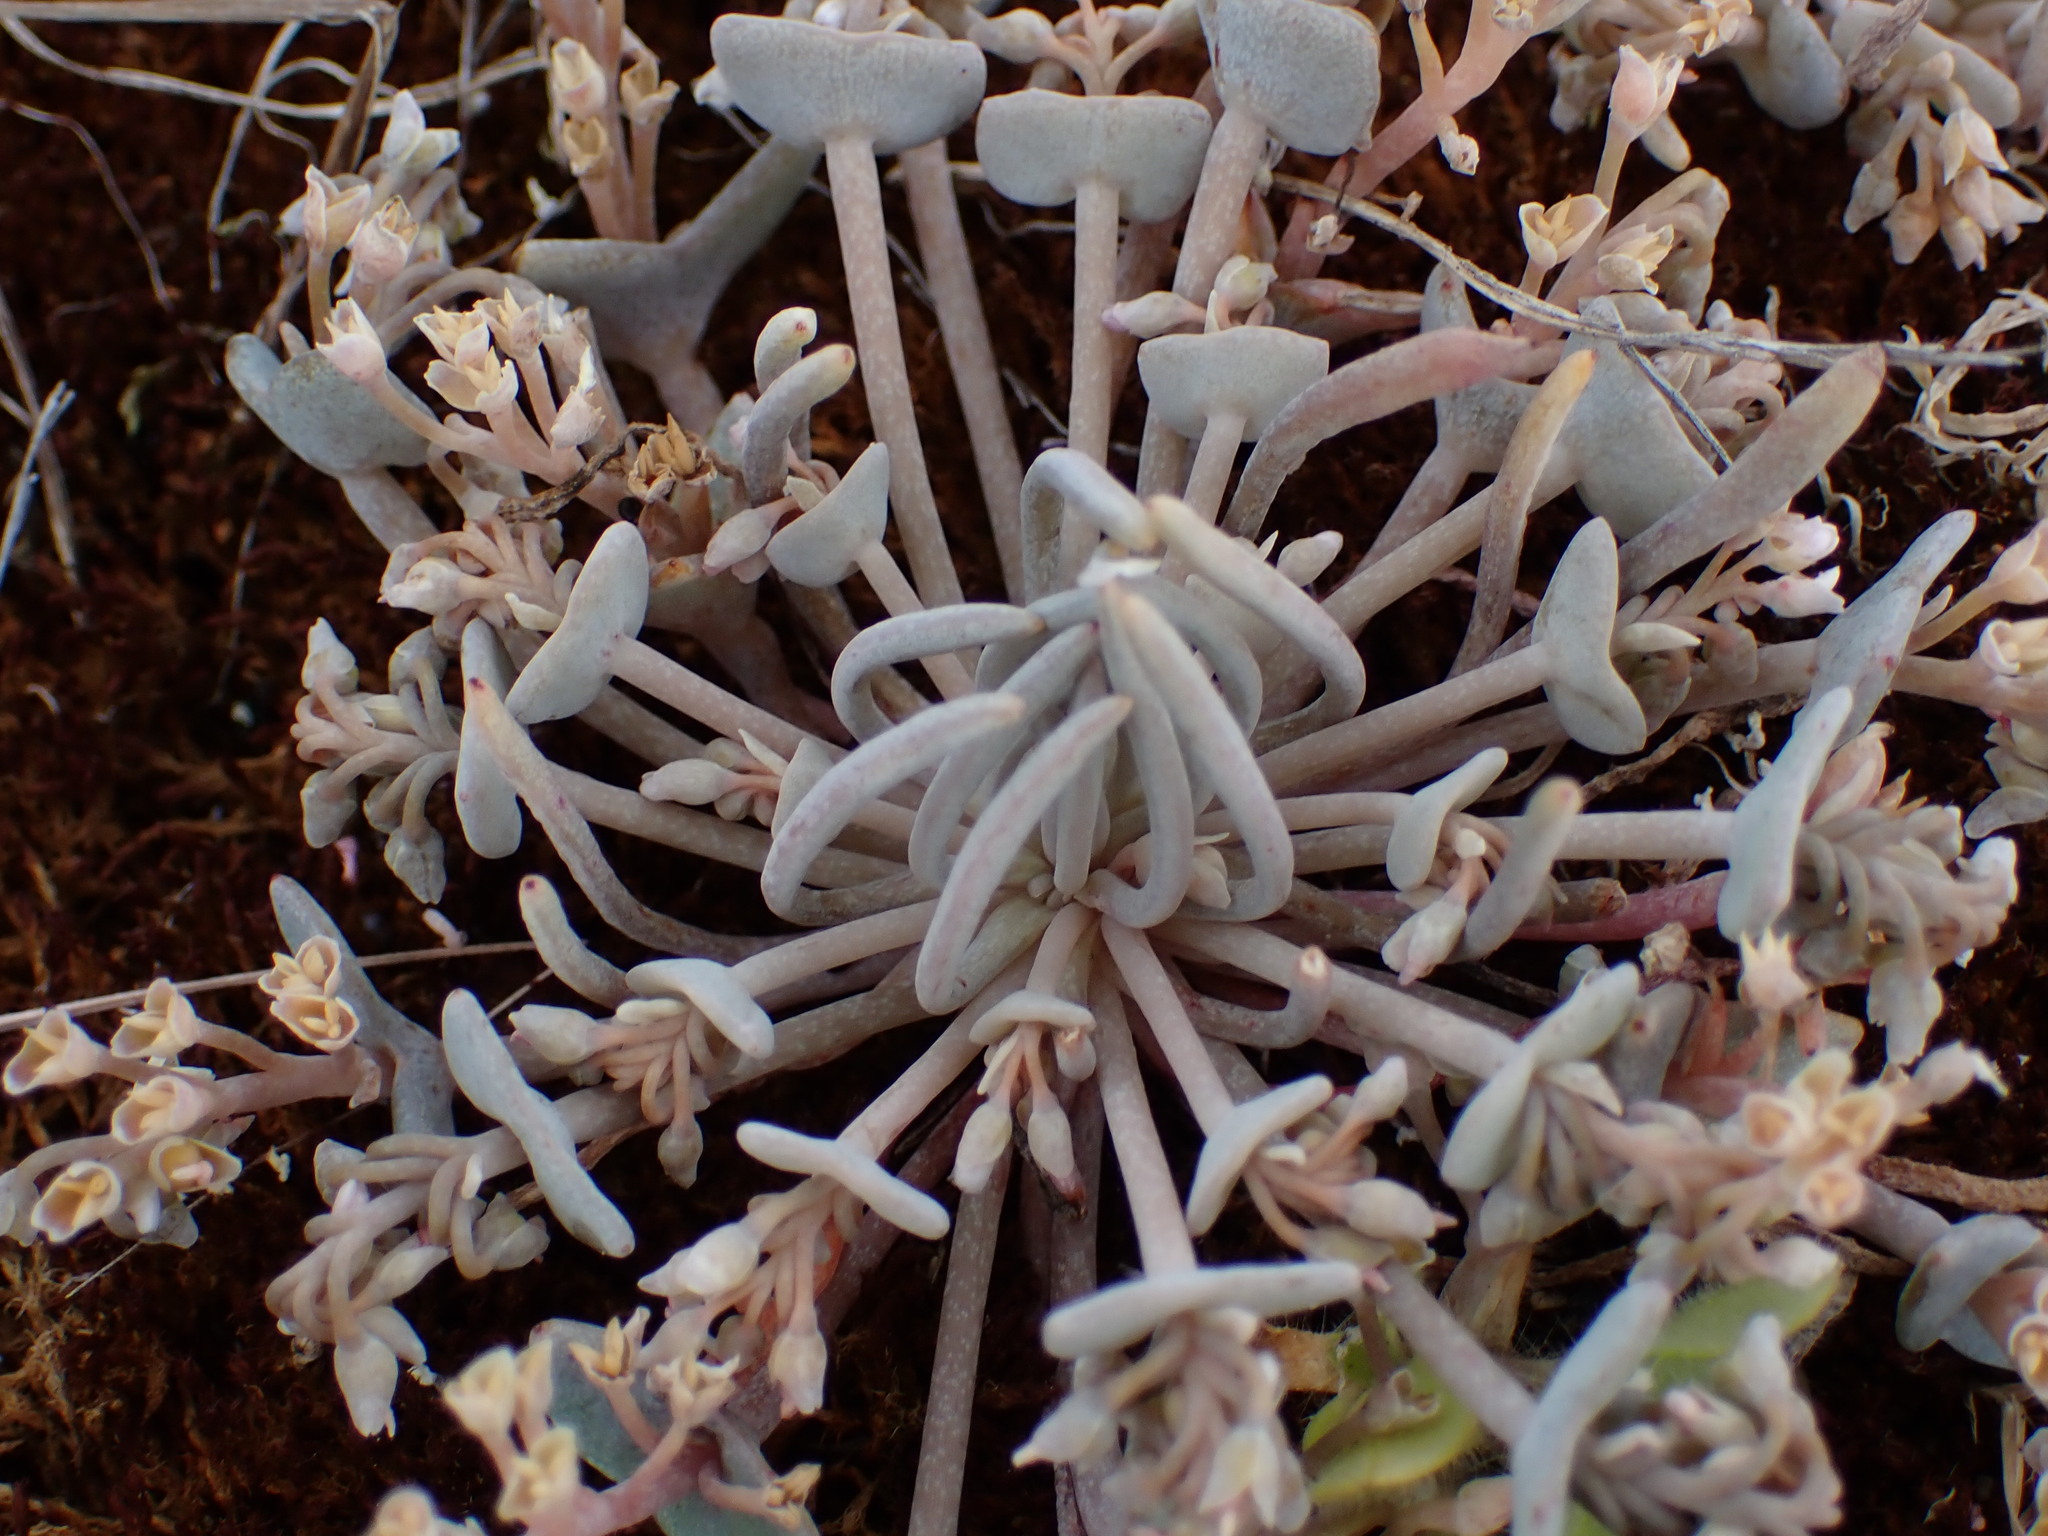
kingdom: Plantae
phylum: Tracheophyta
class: Magnoliopsida
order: Caryophyllales
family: Montiaceae
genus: Claytonia
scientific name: Claytonia exigua
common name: Pale spring beauty
